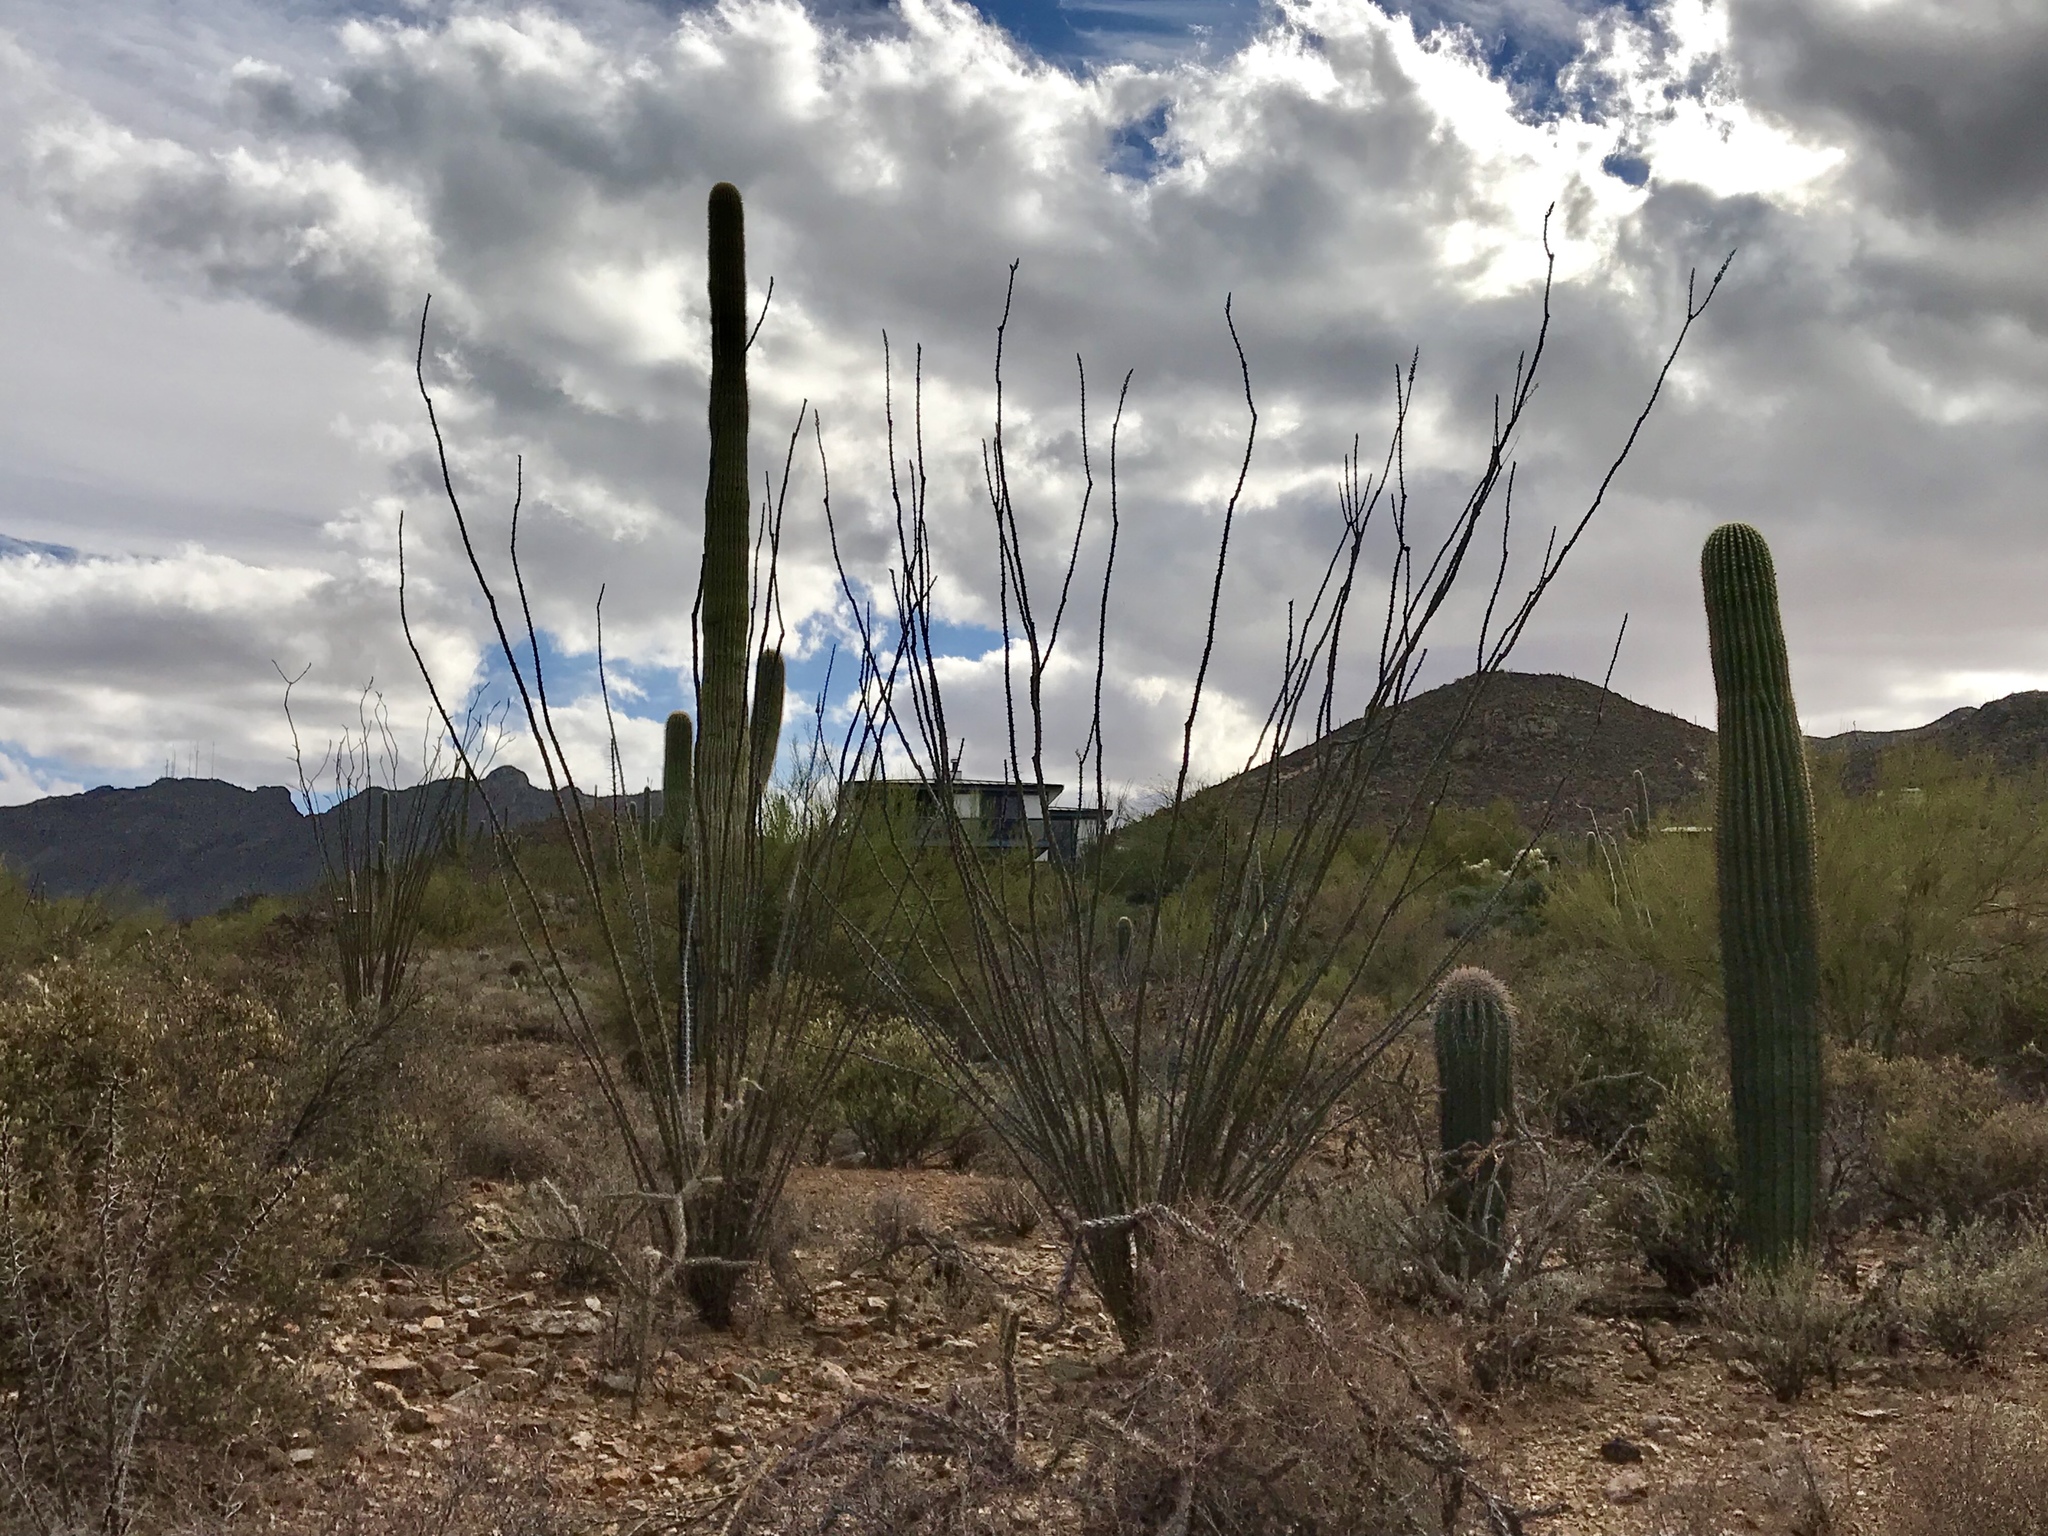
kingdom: Plantae
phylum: Tracheophyta
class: Magnoliopsida
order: Ericales
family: Fouquieriaceae
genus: Fouquieria
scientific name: Fouquieria splendens
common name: Vine-cactus
